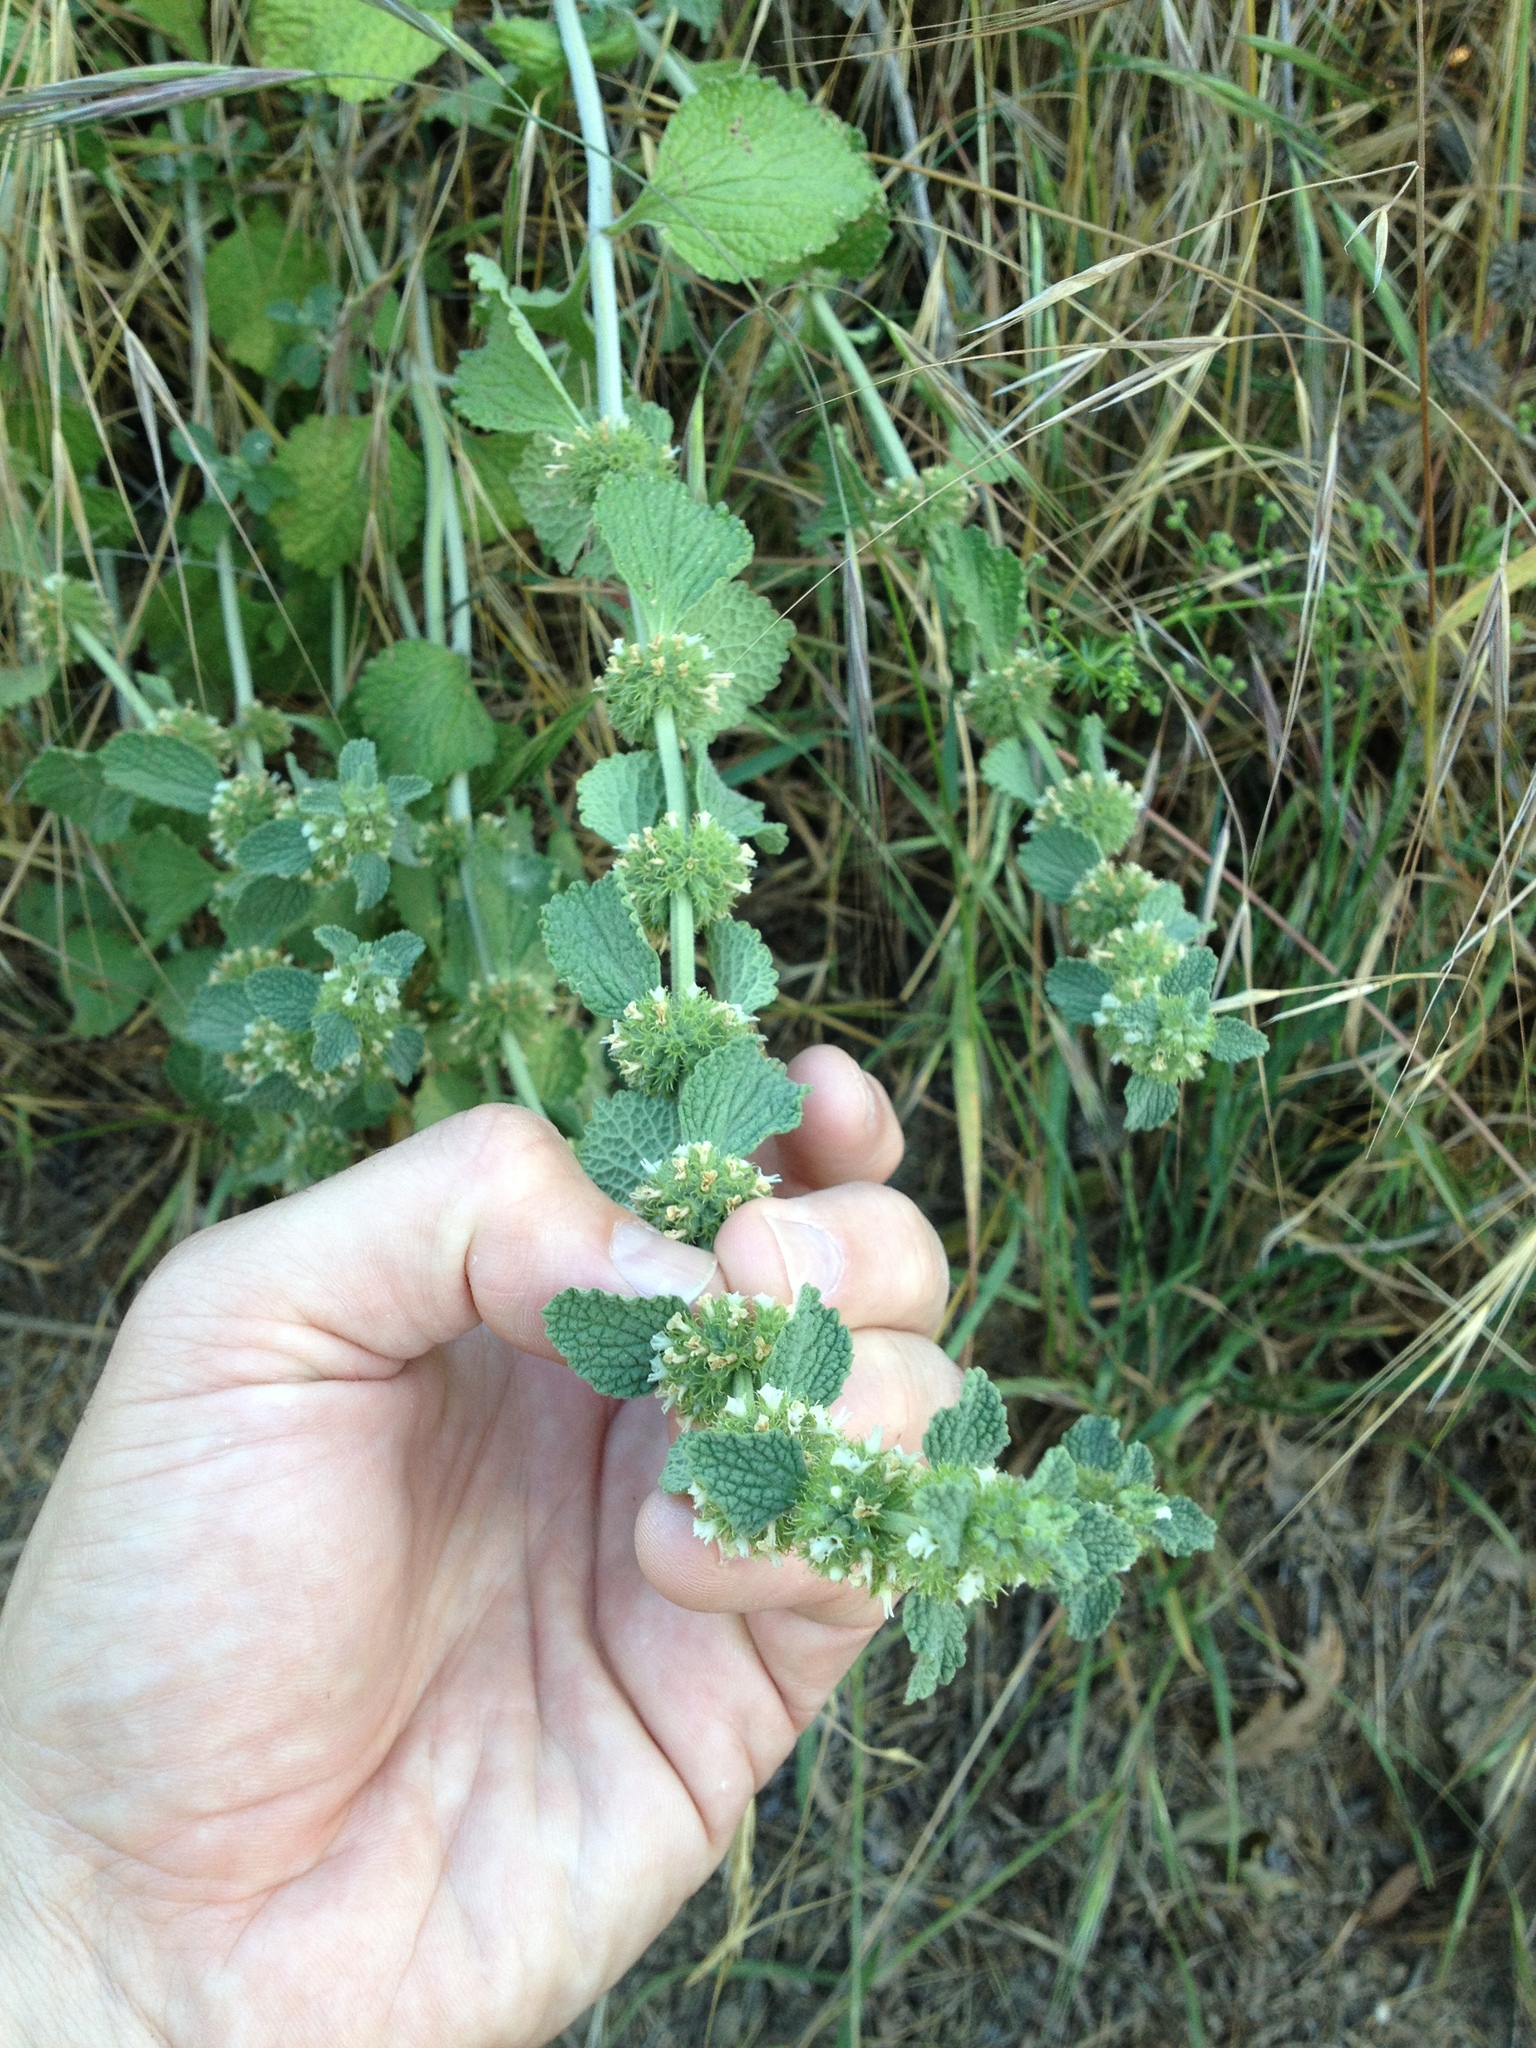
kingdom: Plantae
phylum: Tracheophyta
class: Magnoliopsida
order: Lamiales
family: Lamiaceae
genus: Marrubium
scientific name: Marrubium vulgare
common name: Horehound
